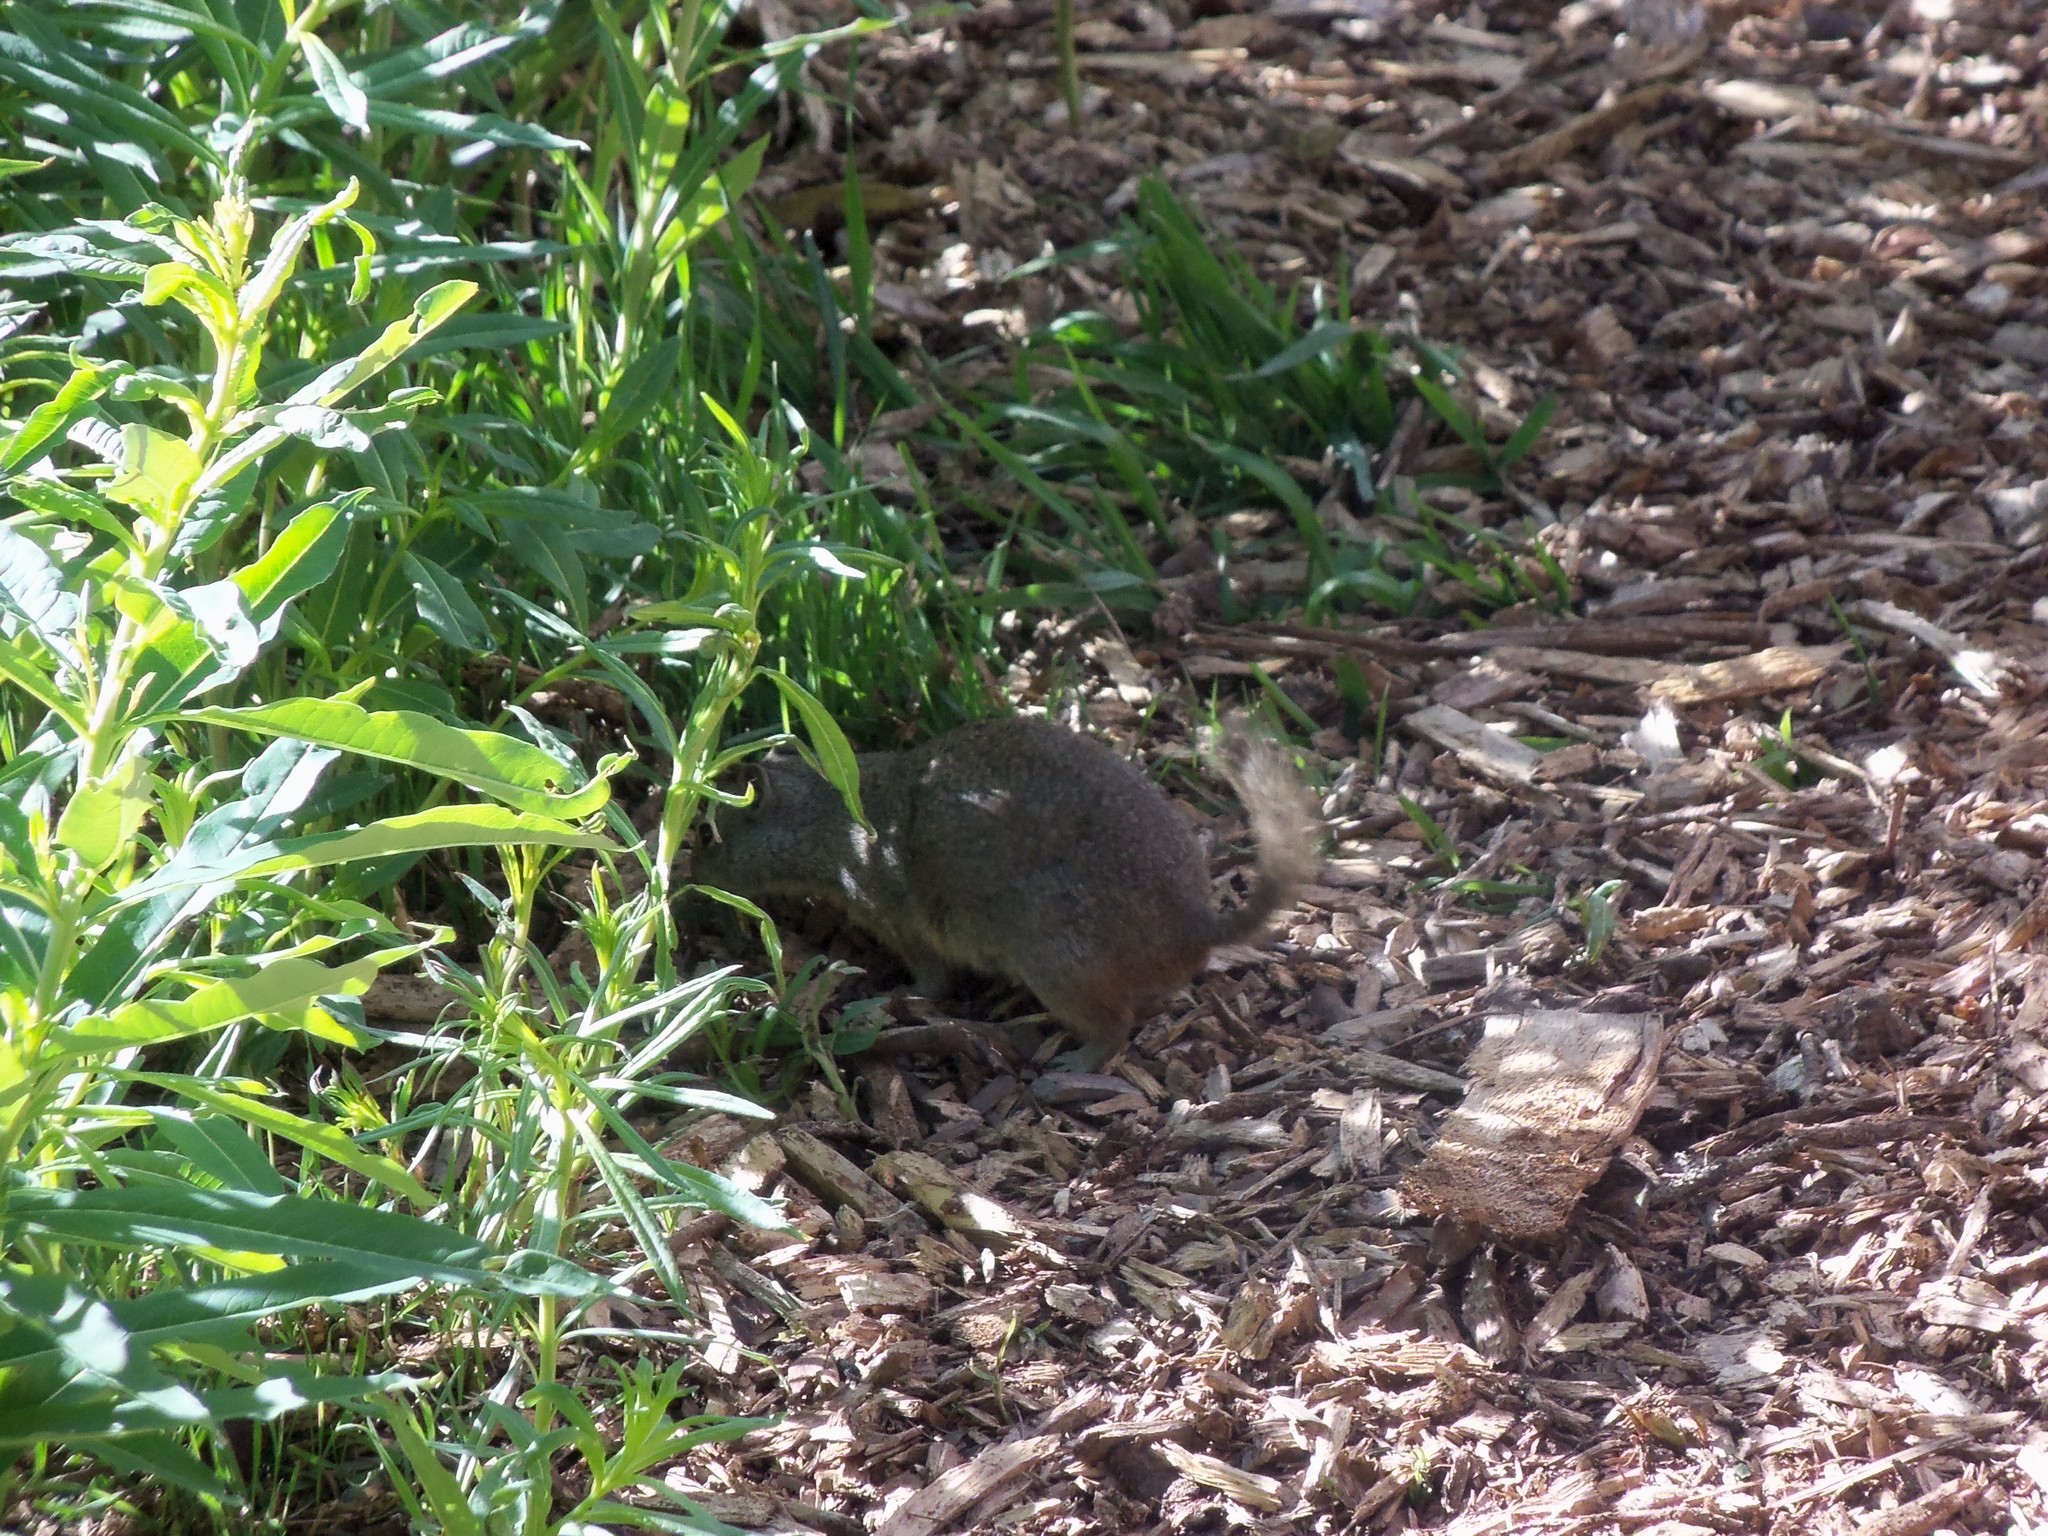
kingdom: Animalia
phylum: Chordata
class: Mammalia
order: Rodentia
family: Sciuridae
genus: Urocitellus
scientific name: Urocitellus armatus
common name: Uinta ground squirrel
